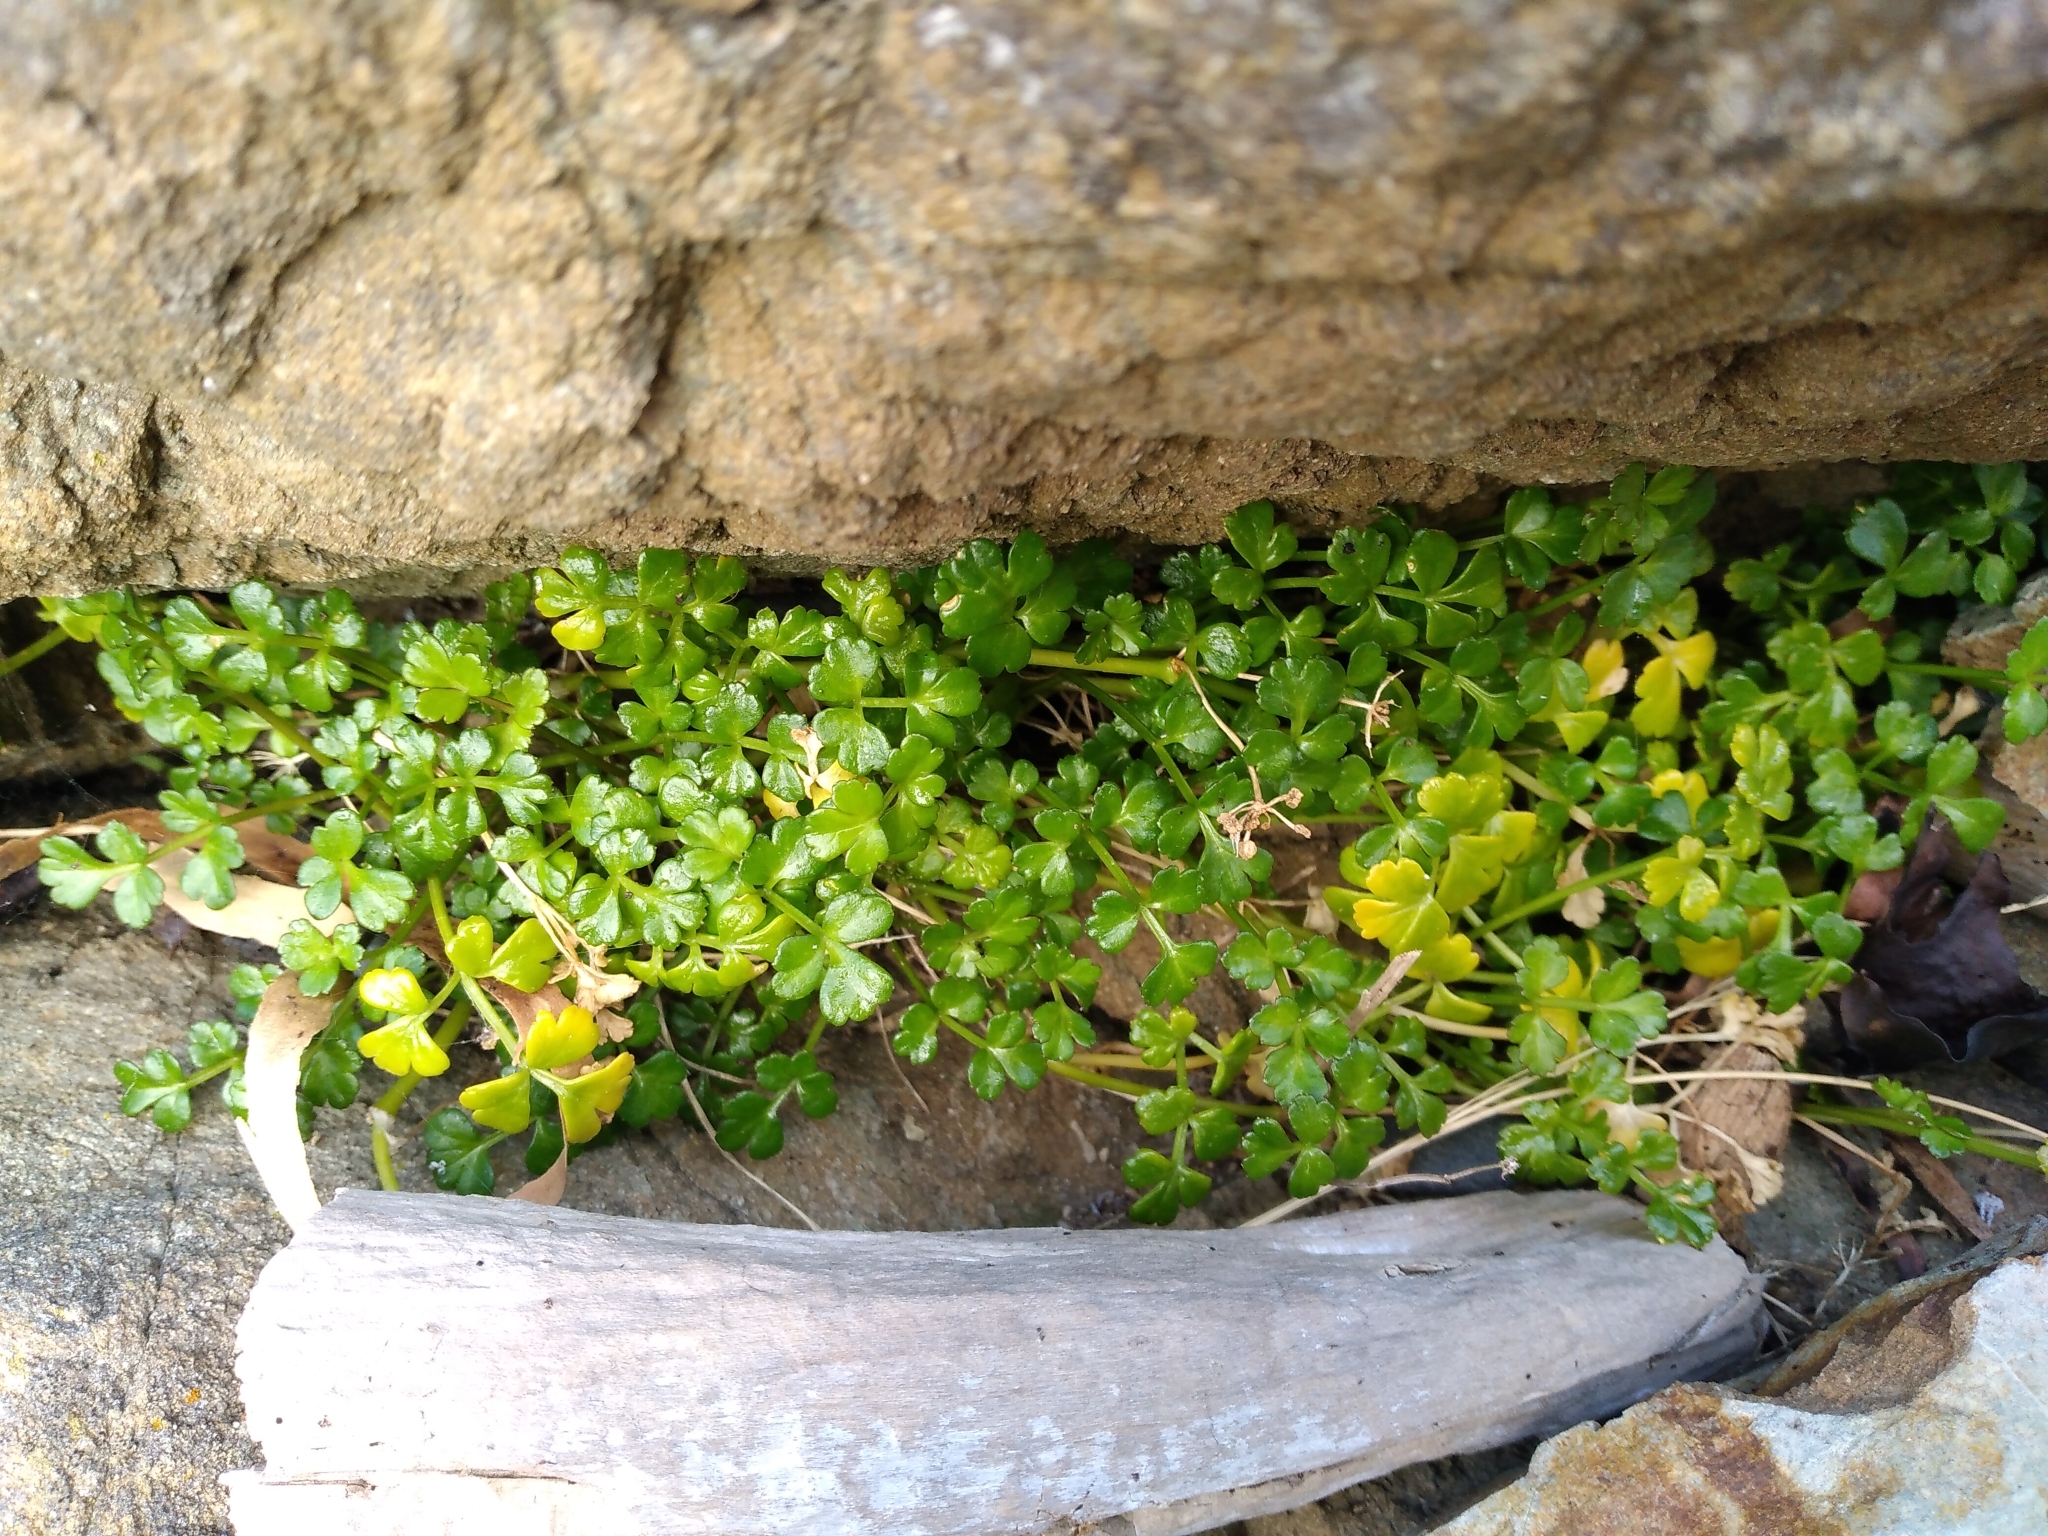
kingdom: Plantae
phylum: Tracheophyta
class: Magnoliopsida
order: Apiales
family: Apiaceae
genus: Apium
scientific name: Apium prostratum
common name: Prostrate marshwort
